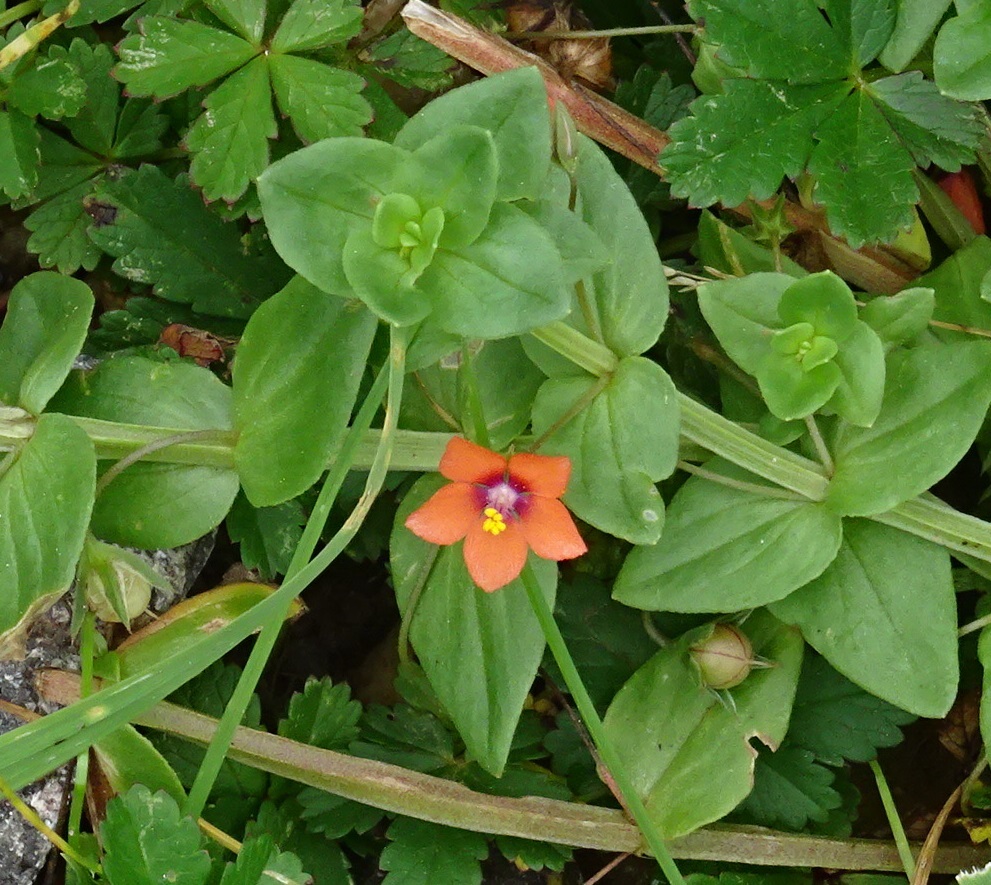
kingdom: Plantae
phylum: Tracheophyta
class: Magnoliopsida
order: Ericales
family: Primulaceae
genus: Lysimachia
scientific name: Lysimachia arvensis
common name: Scarlet pimpernel
